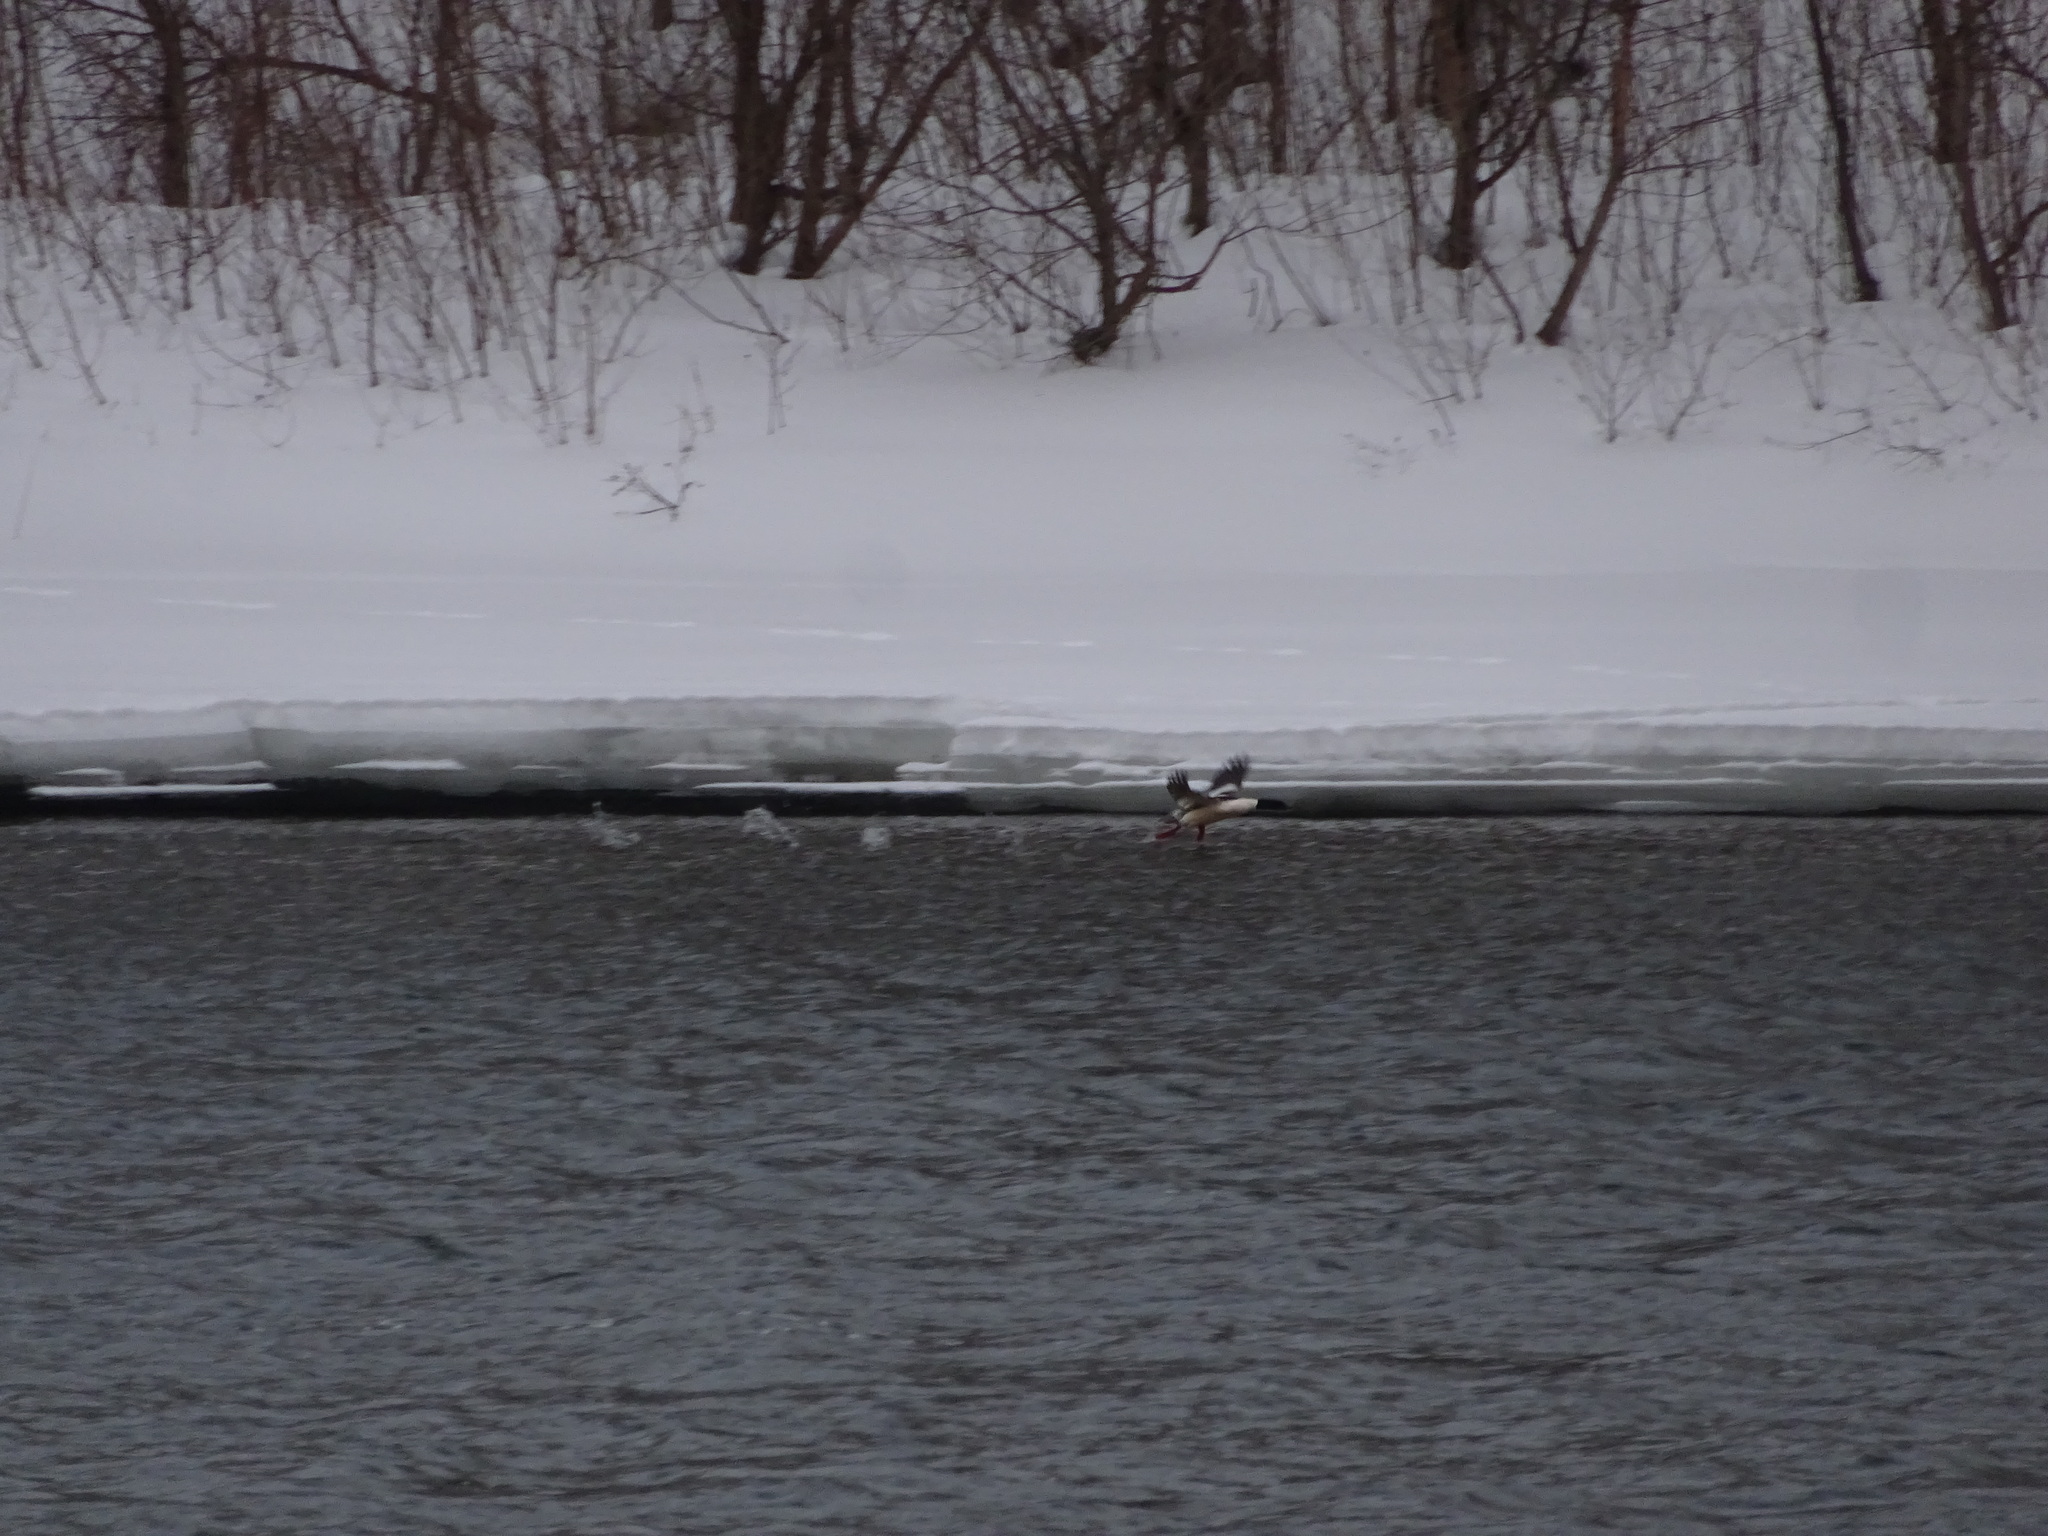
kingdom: Animalia
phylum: Chordata
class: Aves
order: Anseriformes
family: Anatidae
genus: Mergus
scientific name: Mergus merganser
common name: Common merganser
